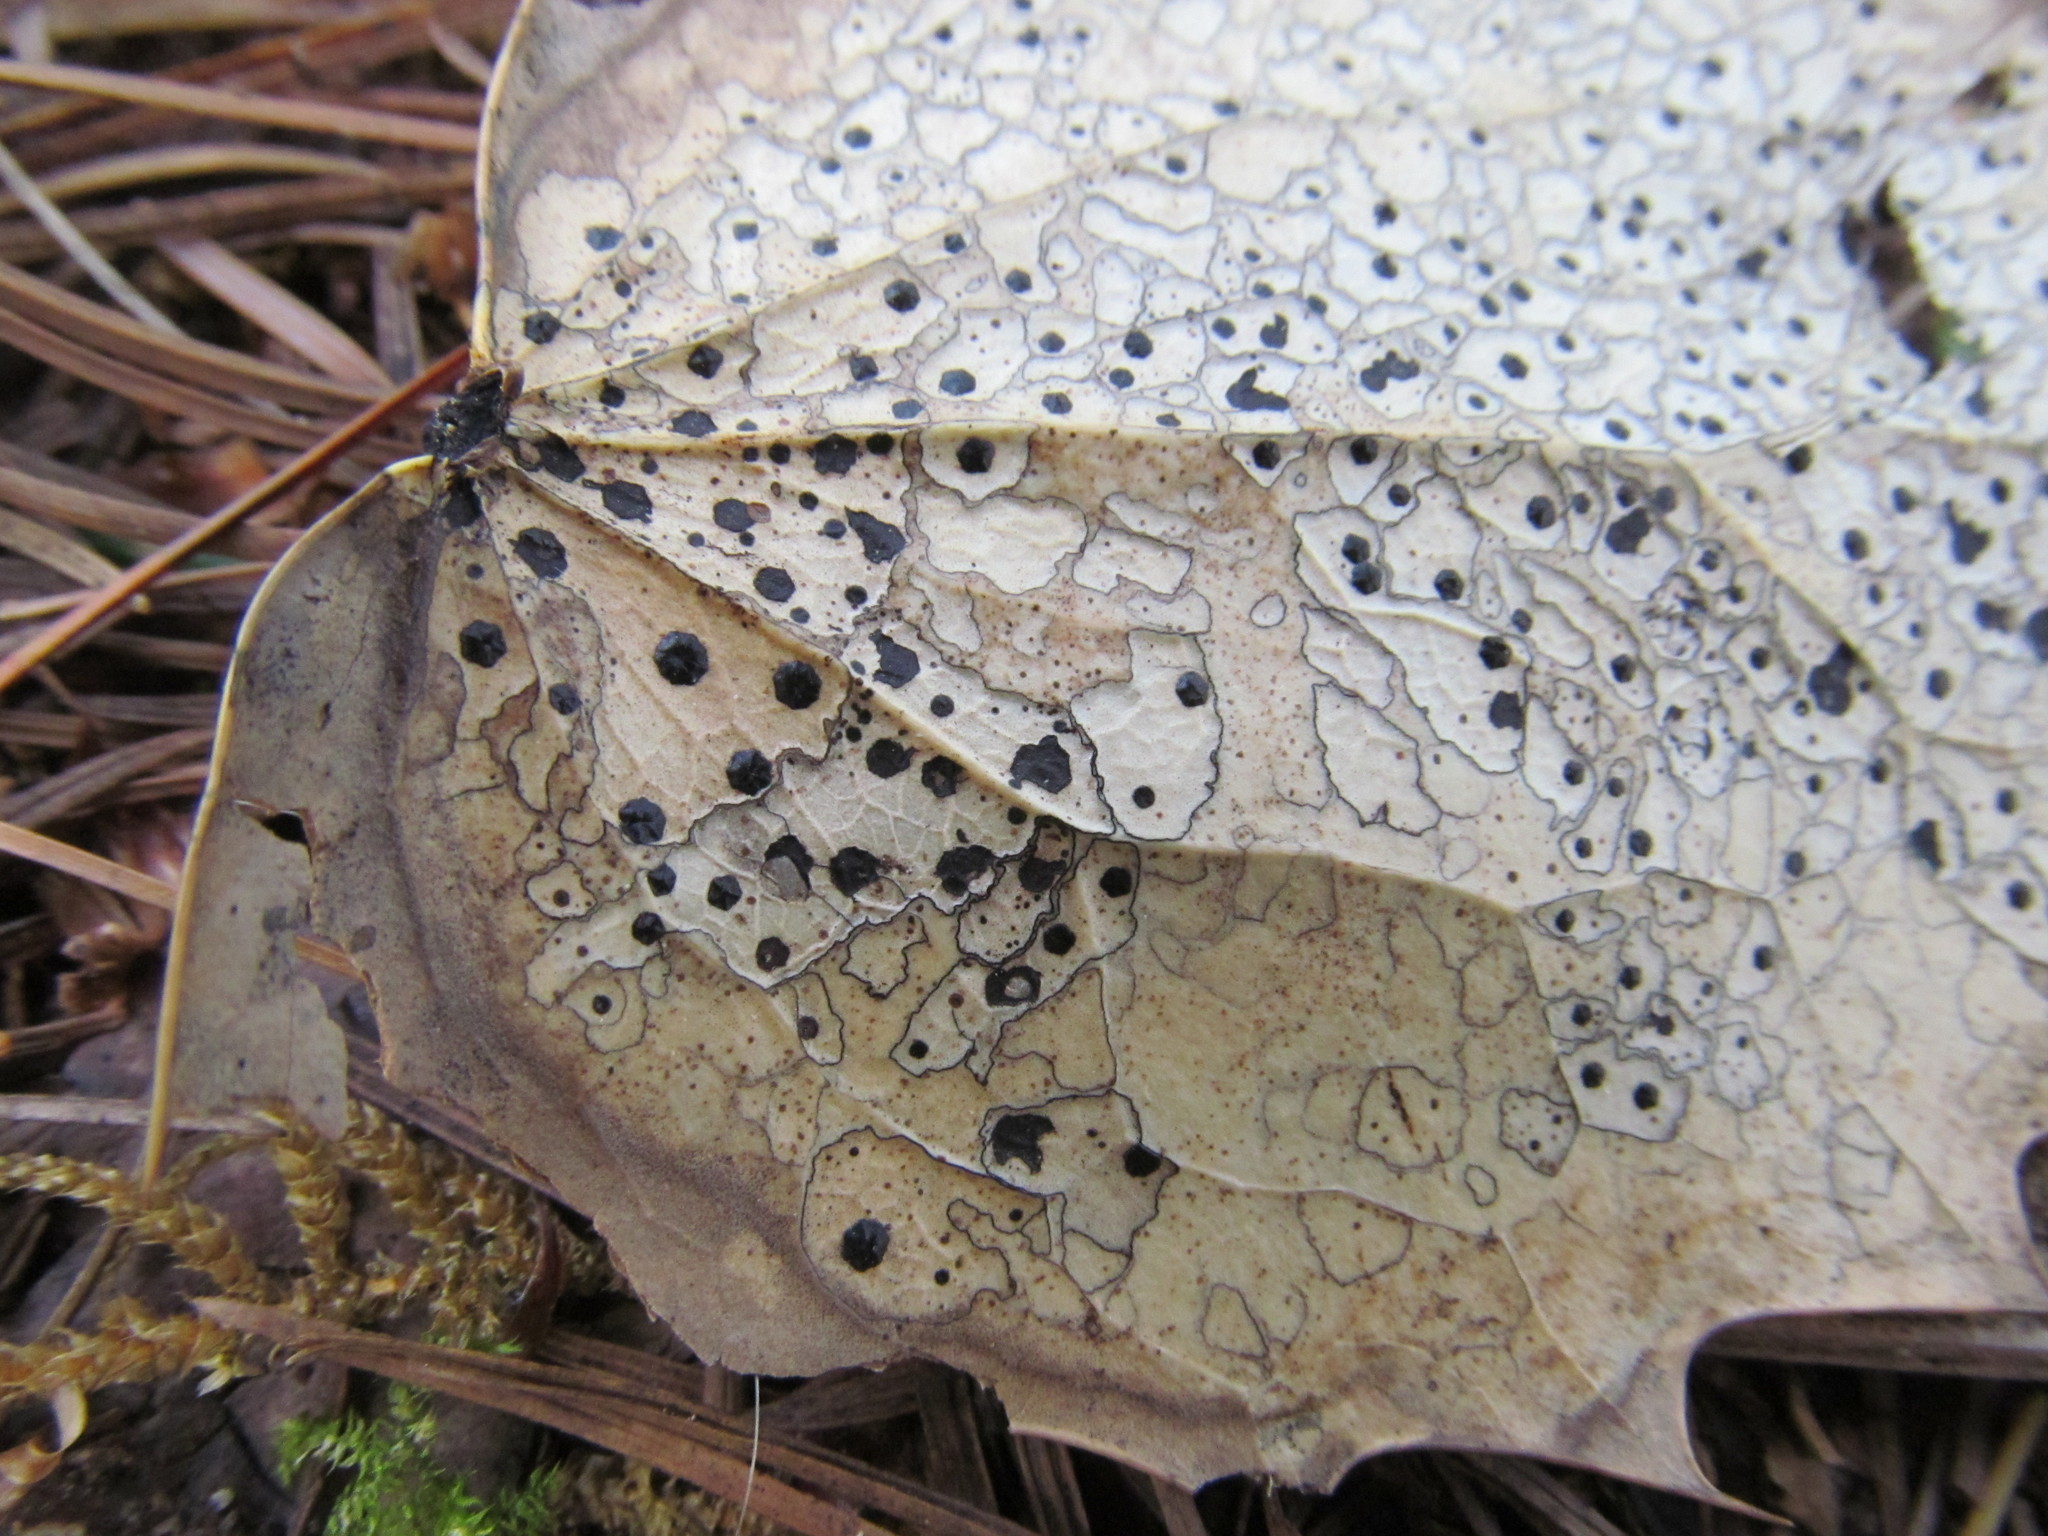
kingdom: Fungi
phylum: Ascomycota
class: Leotiomycetes
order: Rhytismatales
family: Rhytismataceae
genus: Coccomyces
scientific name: Coccomyces dentatus
